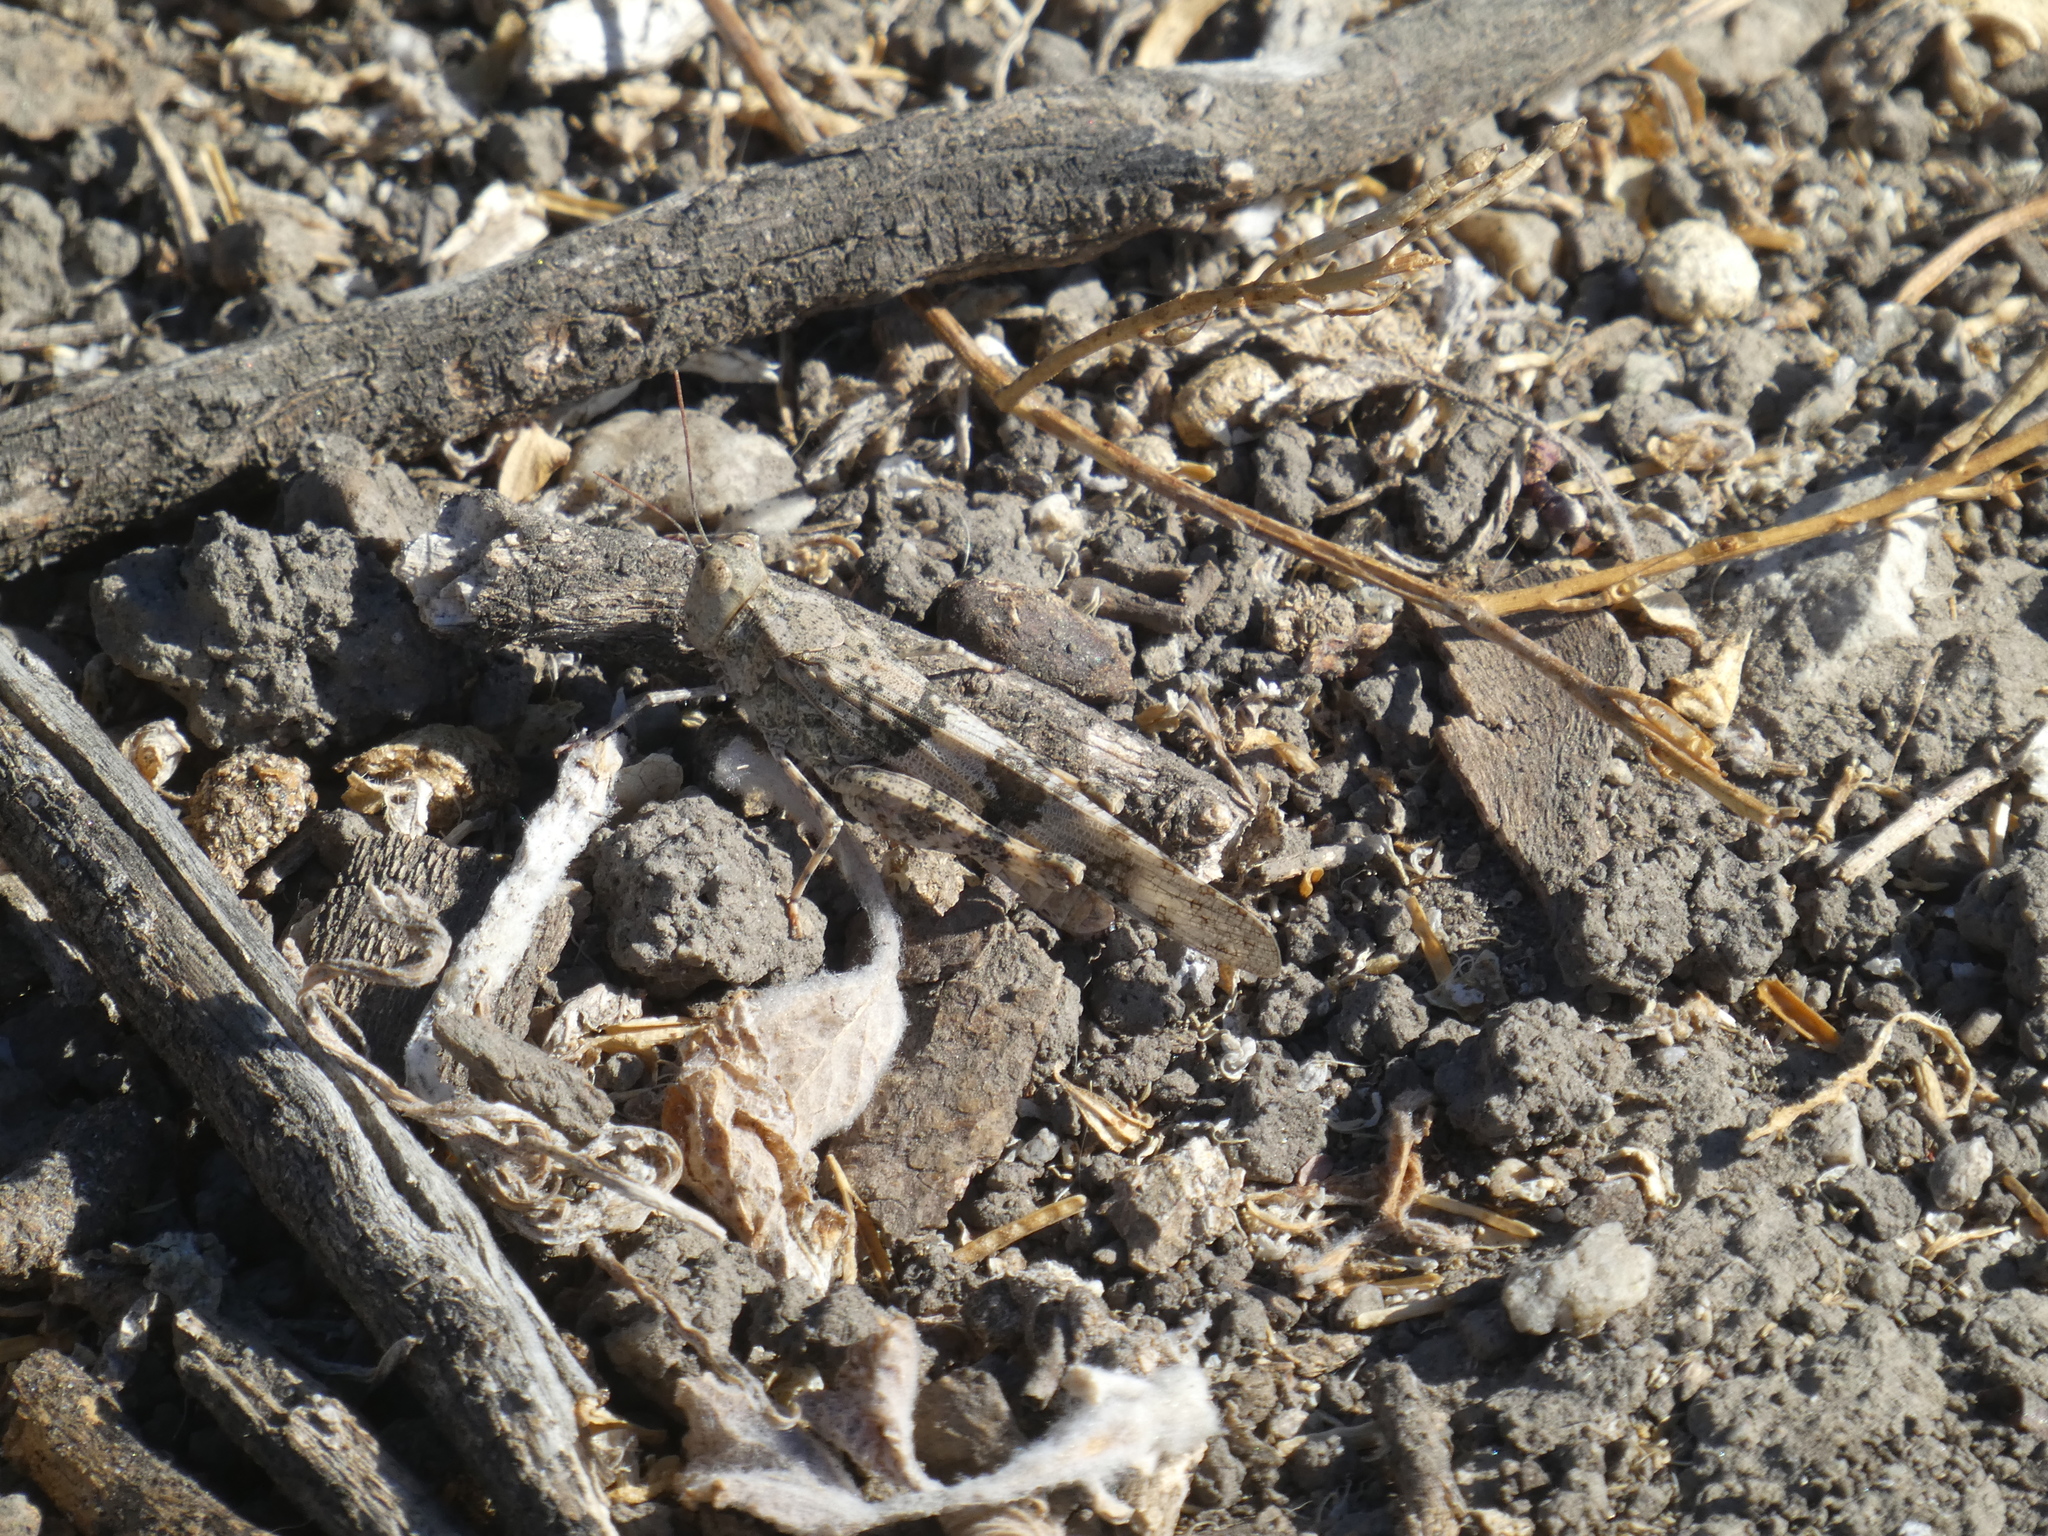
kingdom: Animalia
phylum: Arthropoda
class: Insecta
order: Orthoptera
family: Acrididae
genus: Trimerotropis
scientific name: Trimerotropis pallidipennis
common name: Pallid-winged grasshopper
